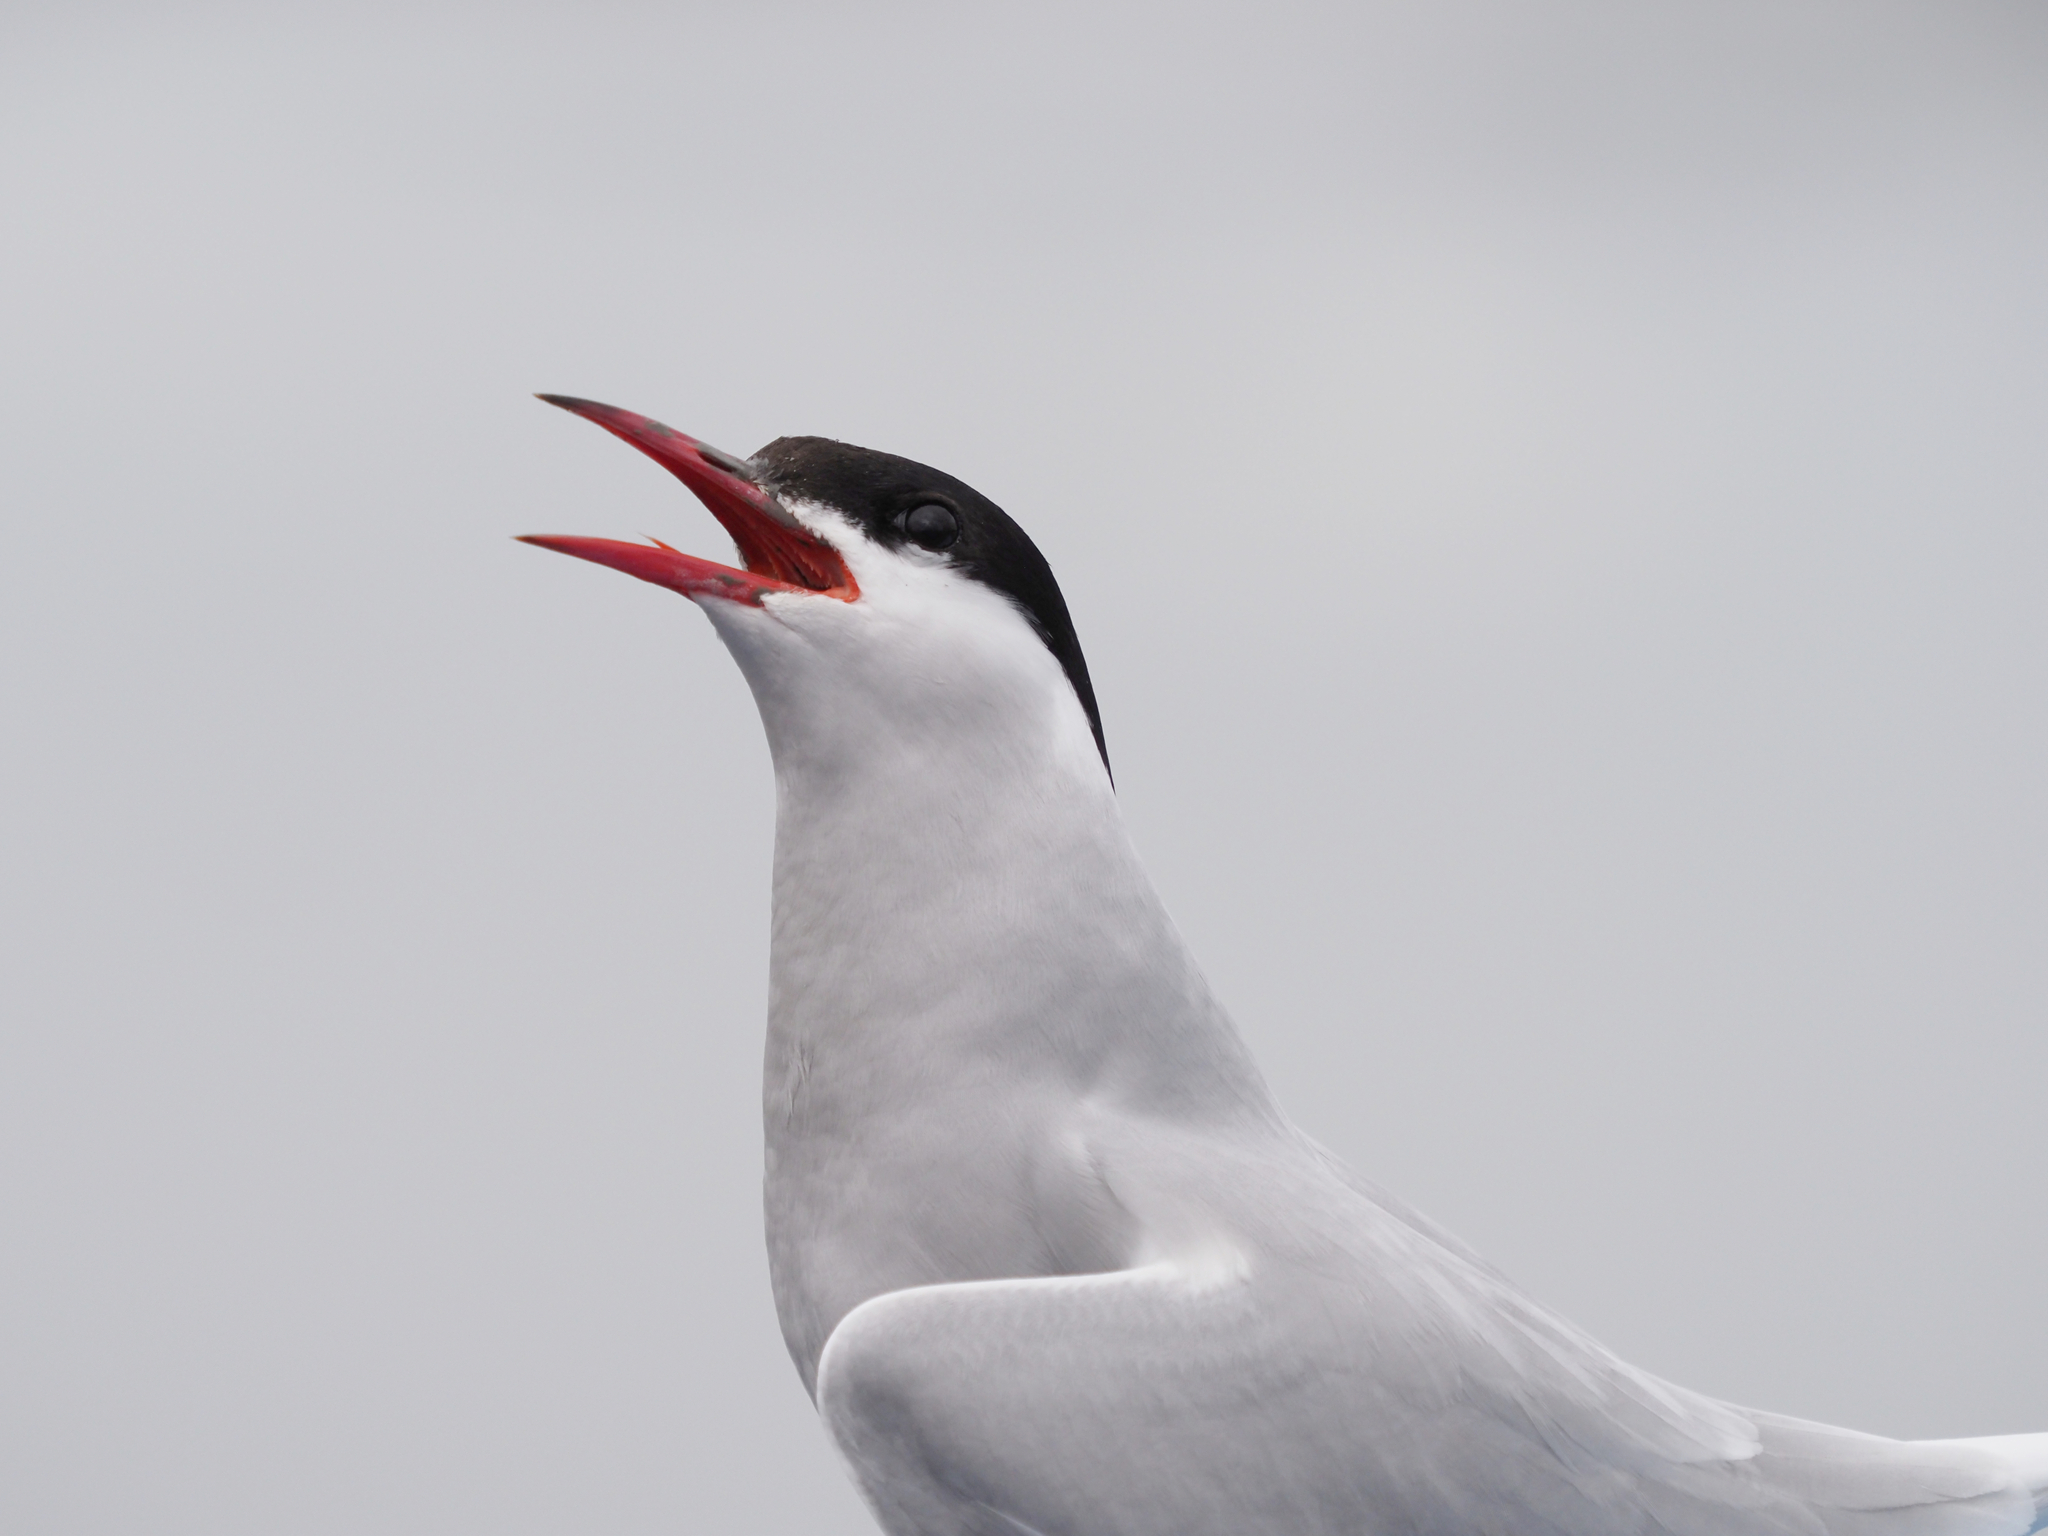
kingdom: Animalia
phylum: Chordata
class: Aves
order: Charadriiformes
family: Laridae
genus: Sterna
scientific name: Sterna paradisaea
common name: Arctic tern
